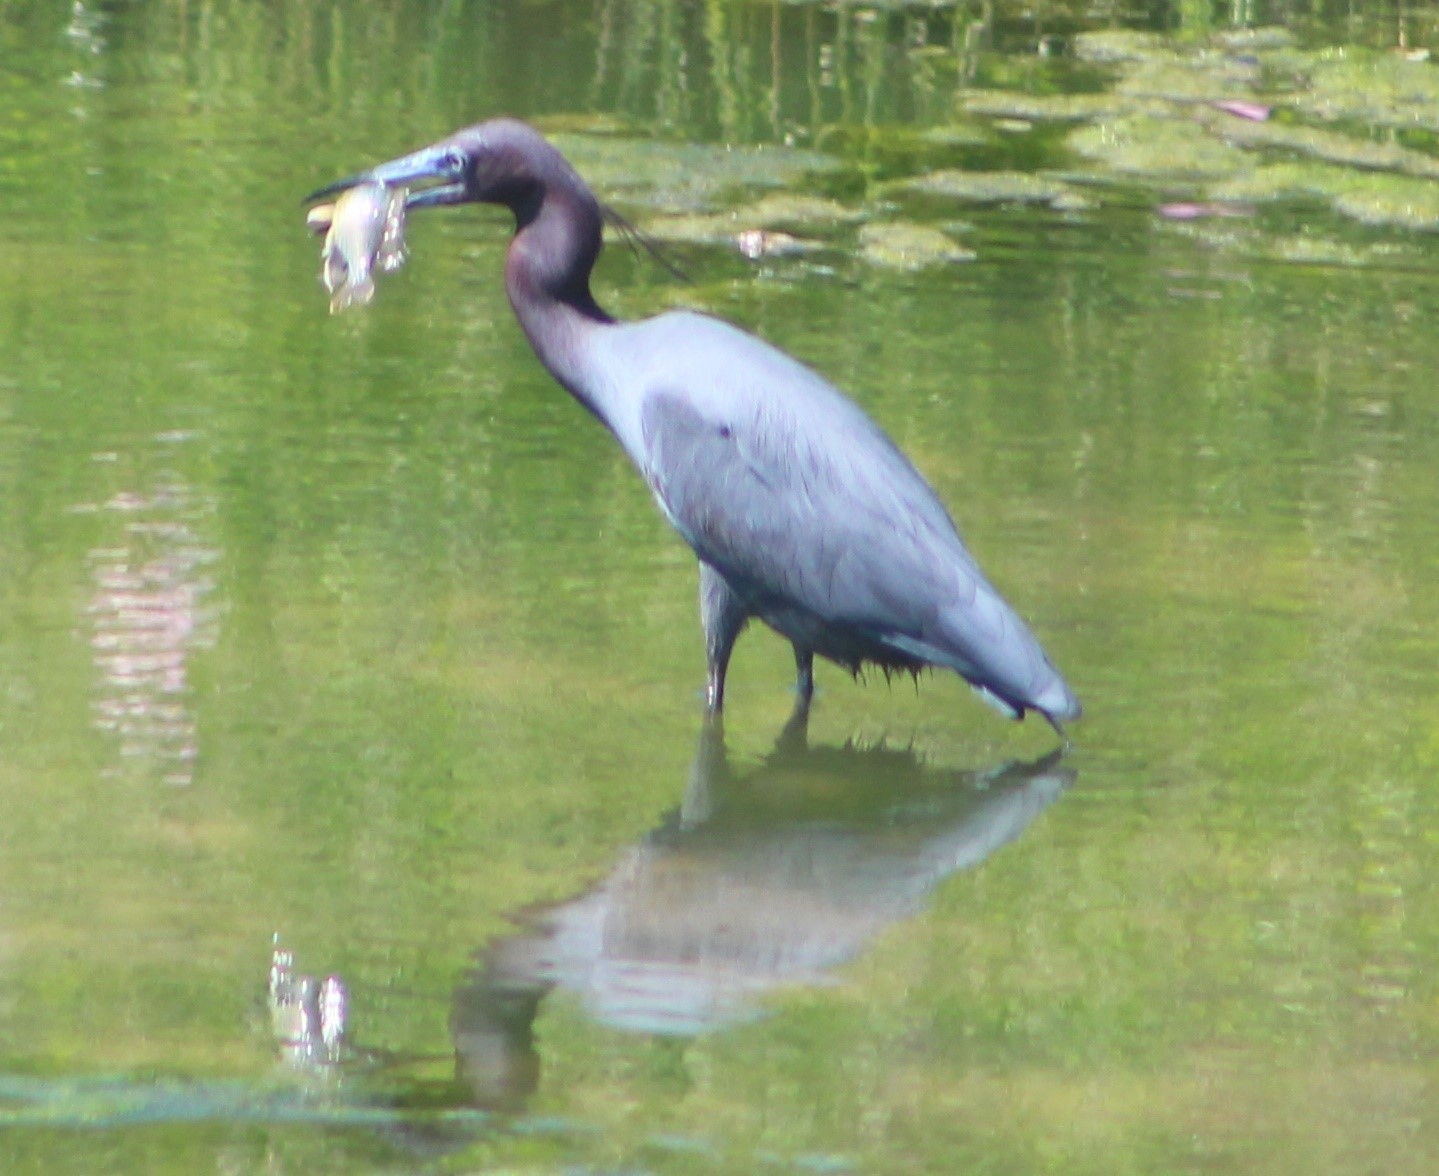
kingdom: Animalia
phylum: Chordata
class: Aves
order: Pelecaniformes
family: Ardeidae
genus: Egretta
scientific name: Egretta caerulea
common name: Little blue heron
